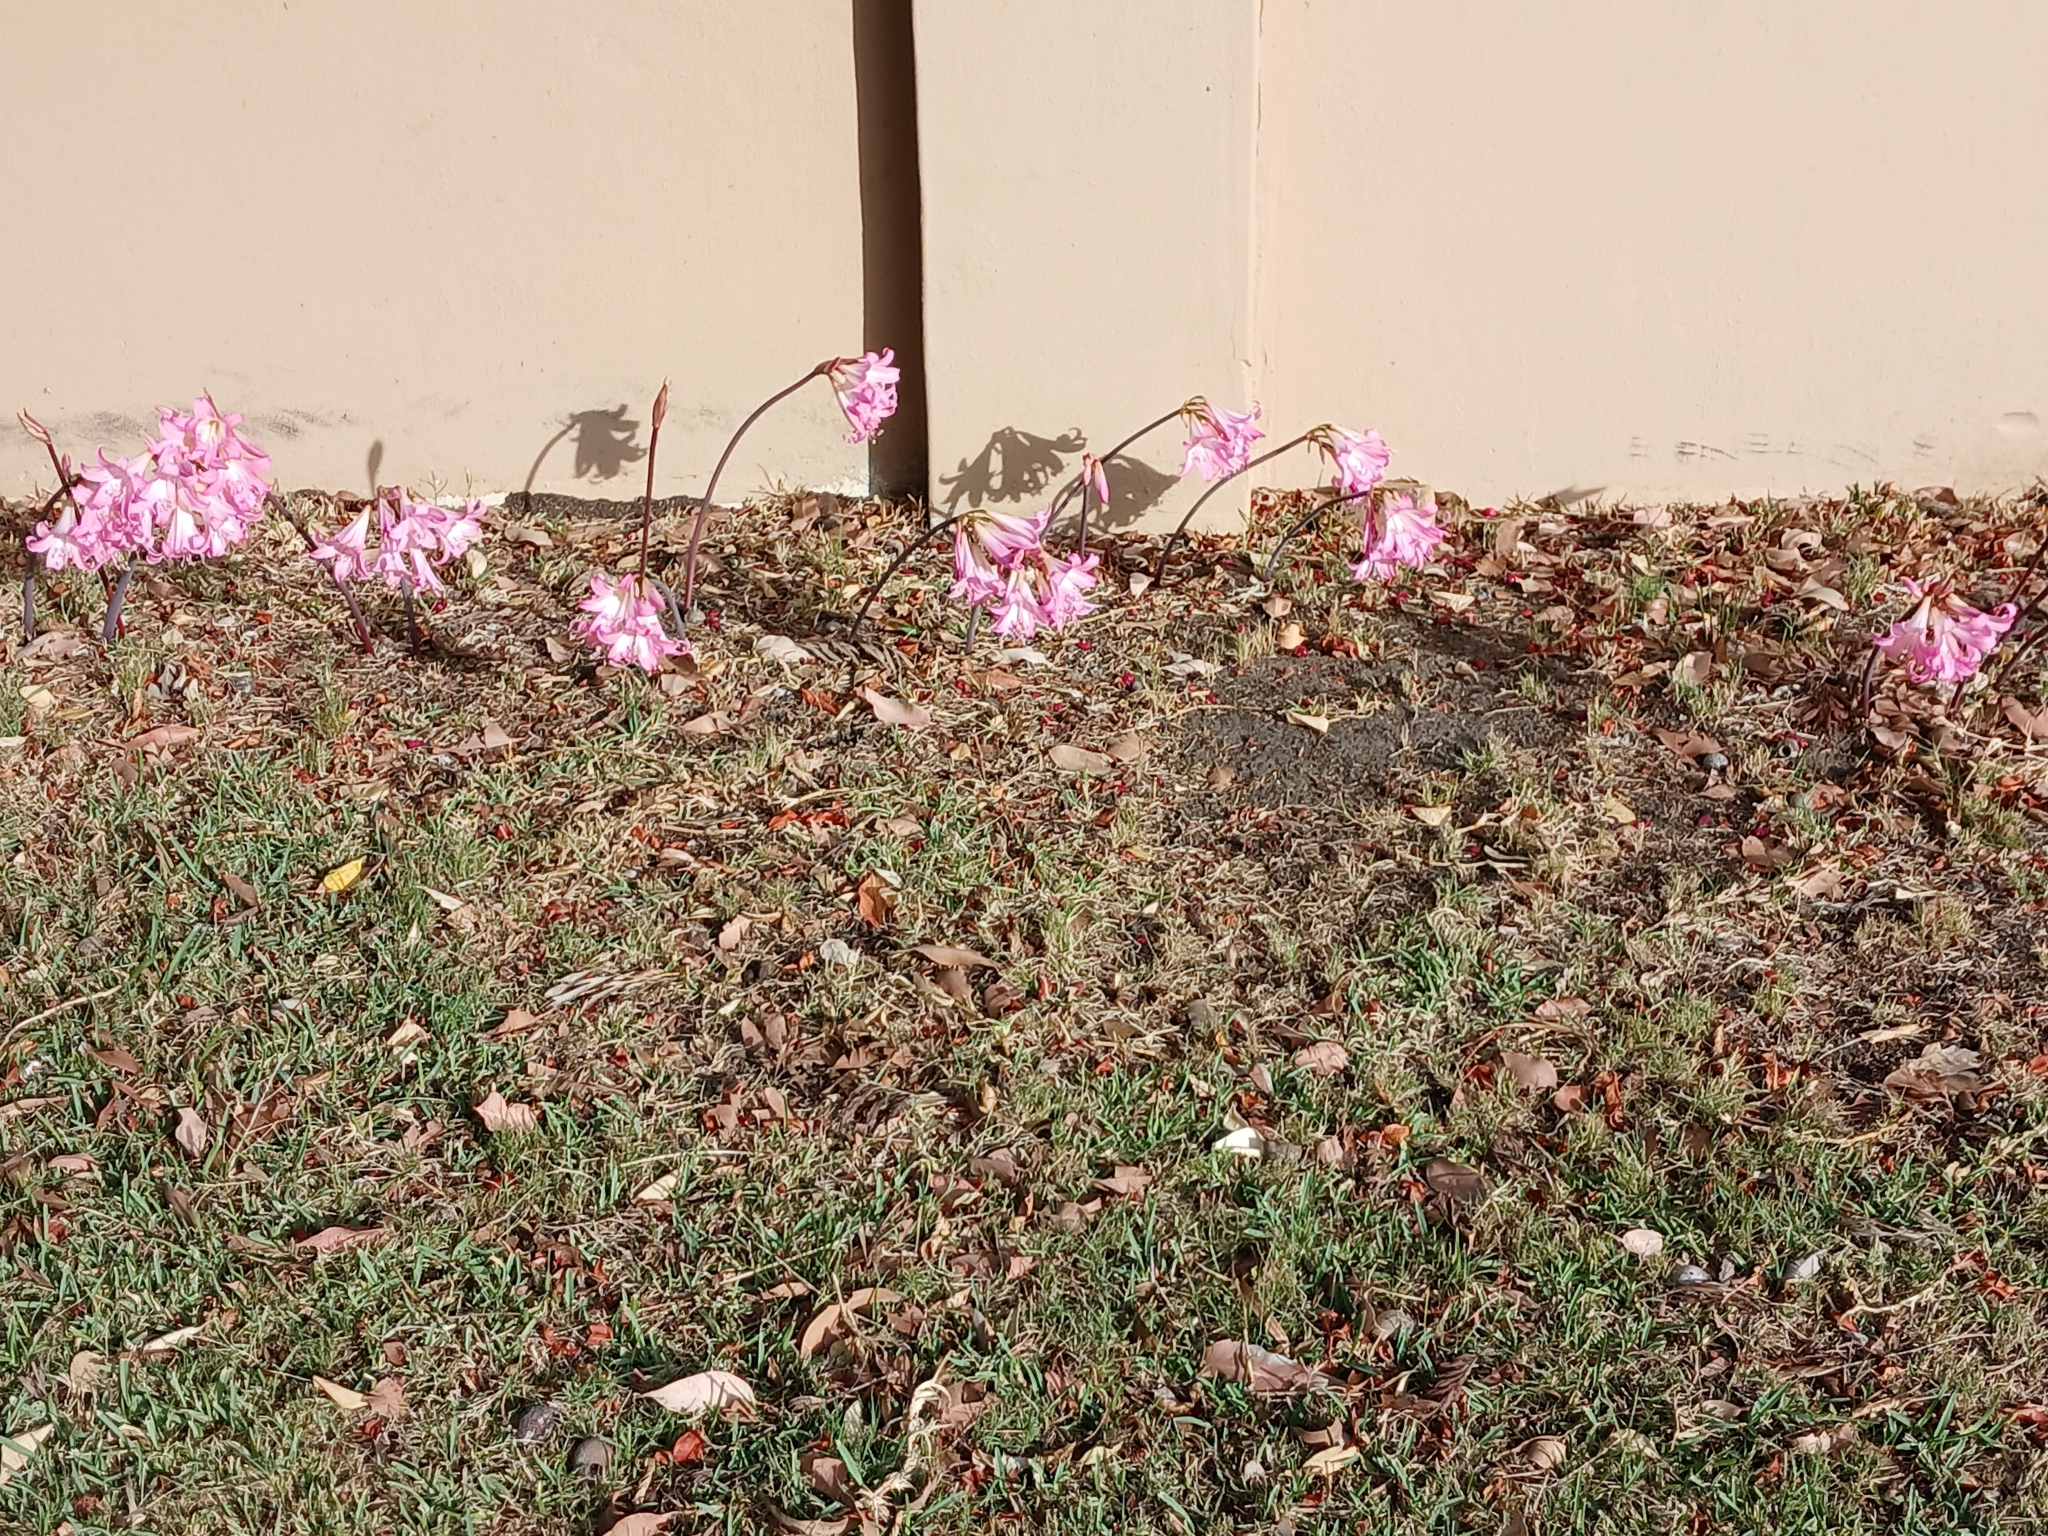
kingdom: Plantae
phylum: Tracheophyta
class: Liliopsida
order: Asparagales
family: Amaryllidaceae
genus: Amaryllis
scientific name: Amaryllis belladonna
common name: Jersey lily
